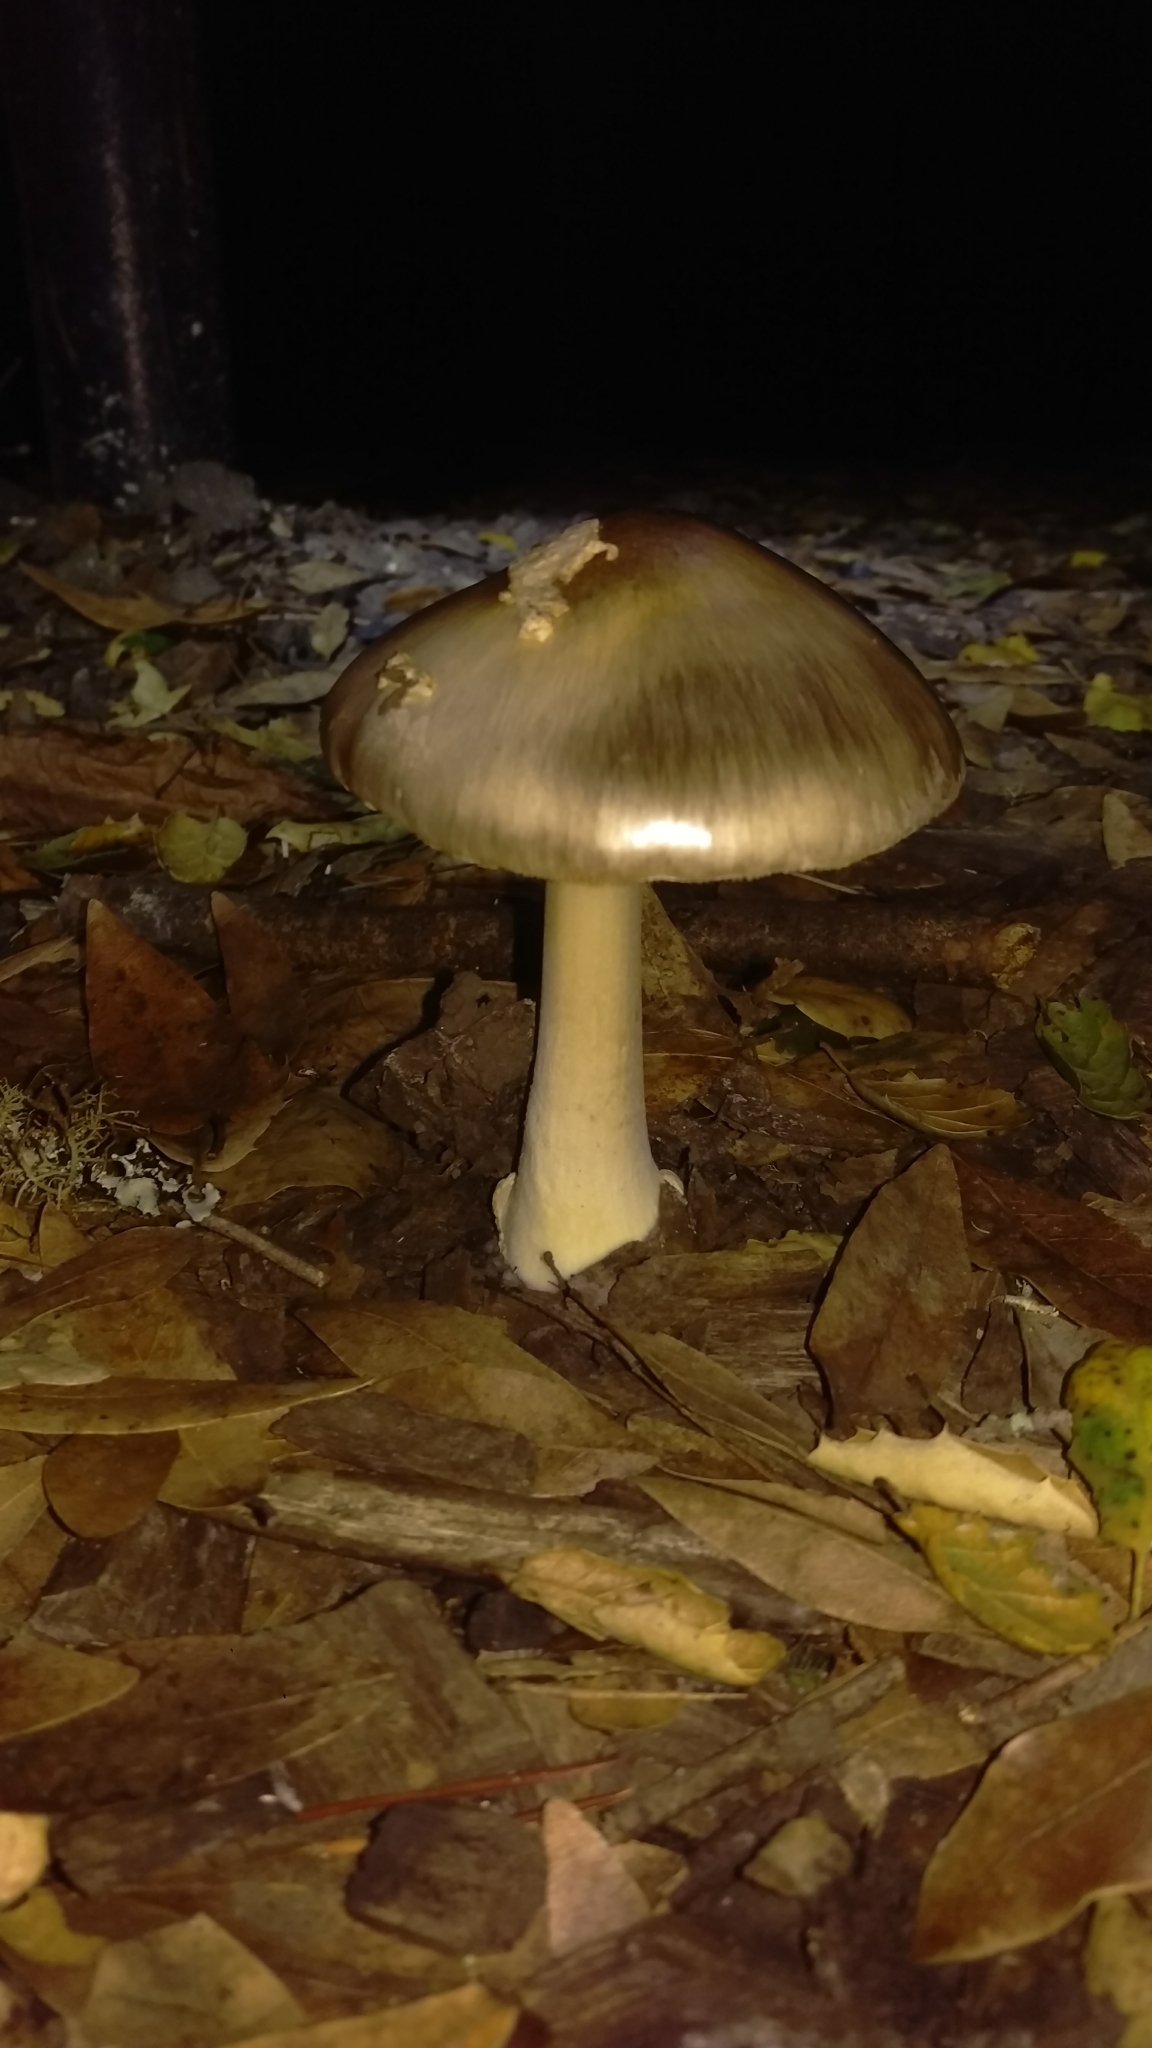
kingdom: Fungi
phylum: Basidiomycota
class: Agaricomycetes
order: Agaricales
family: Amanitaceae
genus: Amanita
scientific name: Amanita phalloides
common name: Death cap
